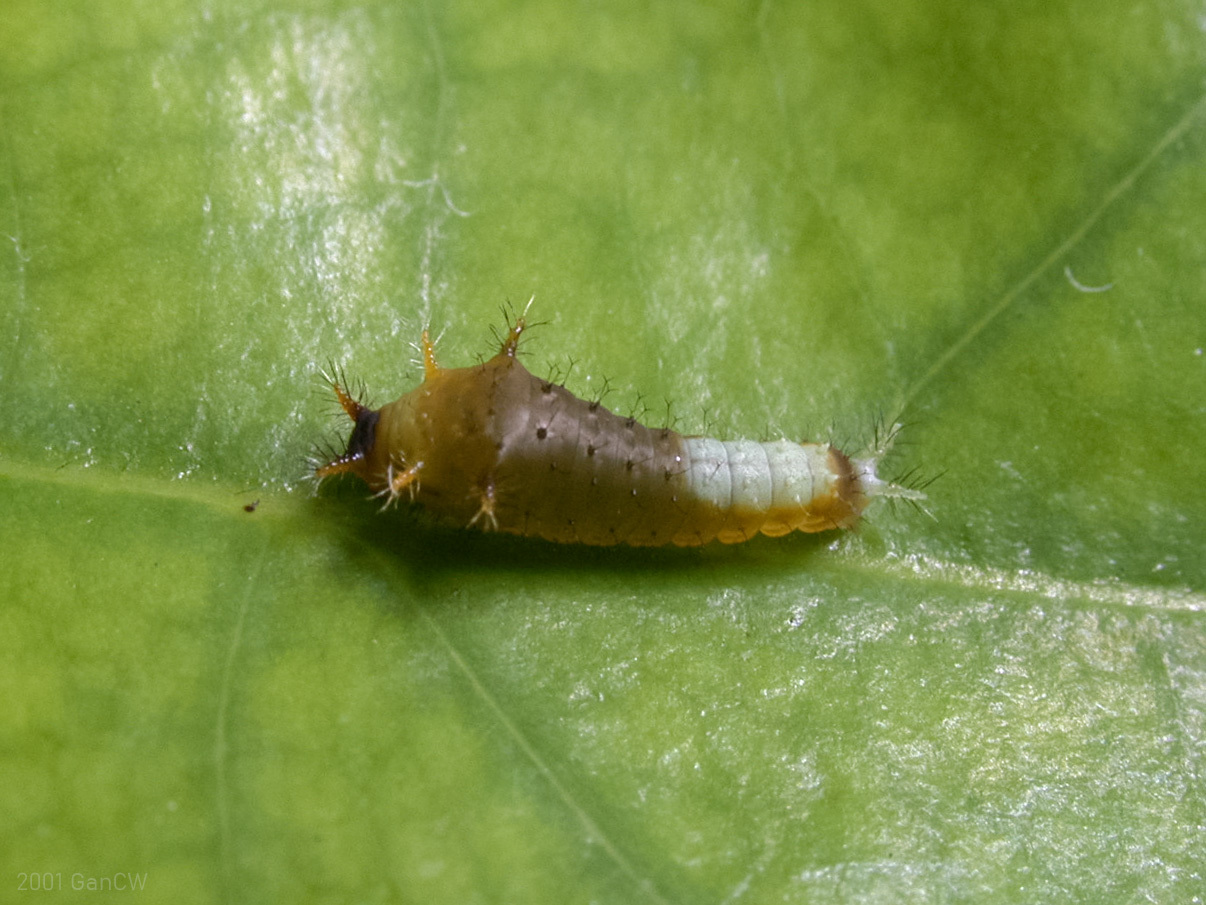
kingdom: Animalia
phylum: Arthropoda
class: Insecta
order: Lepidoptera
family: Papilionidae
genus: Graphium
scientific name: Graphium agamemnon
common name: Tailed jay
